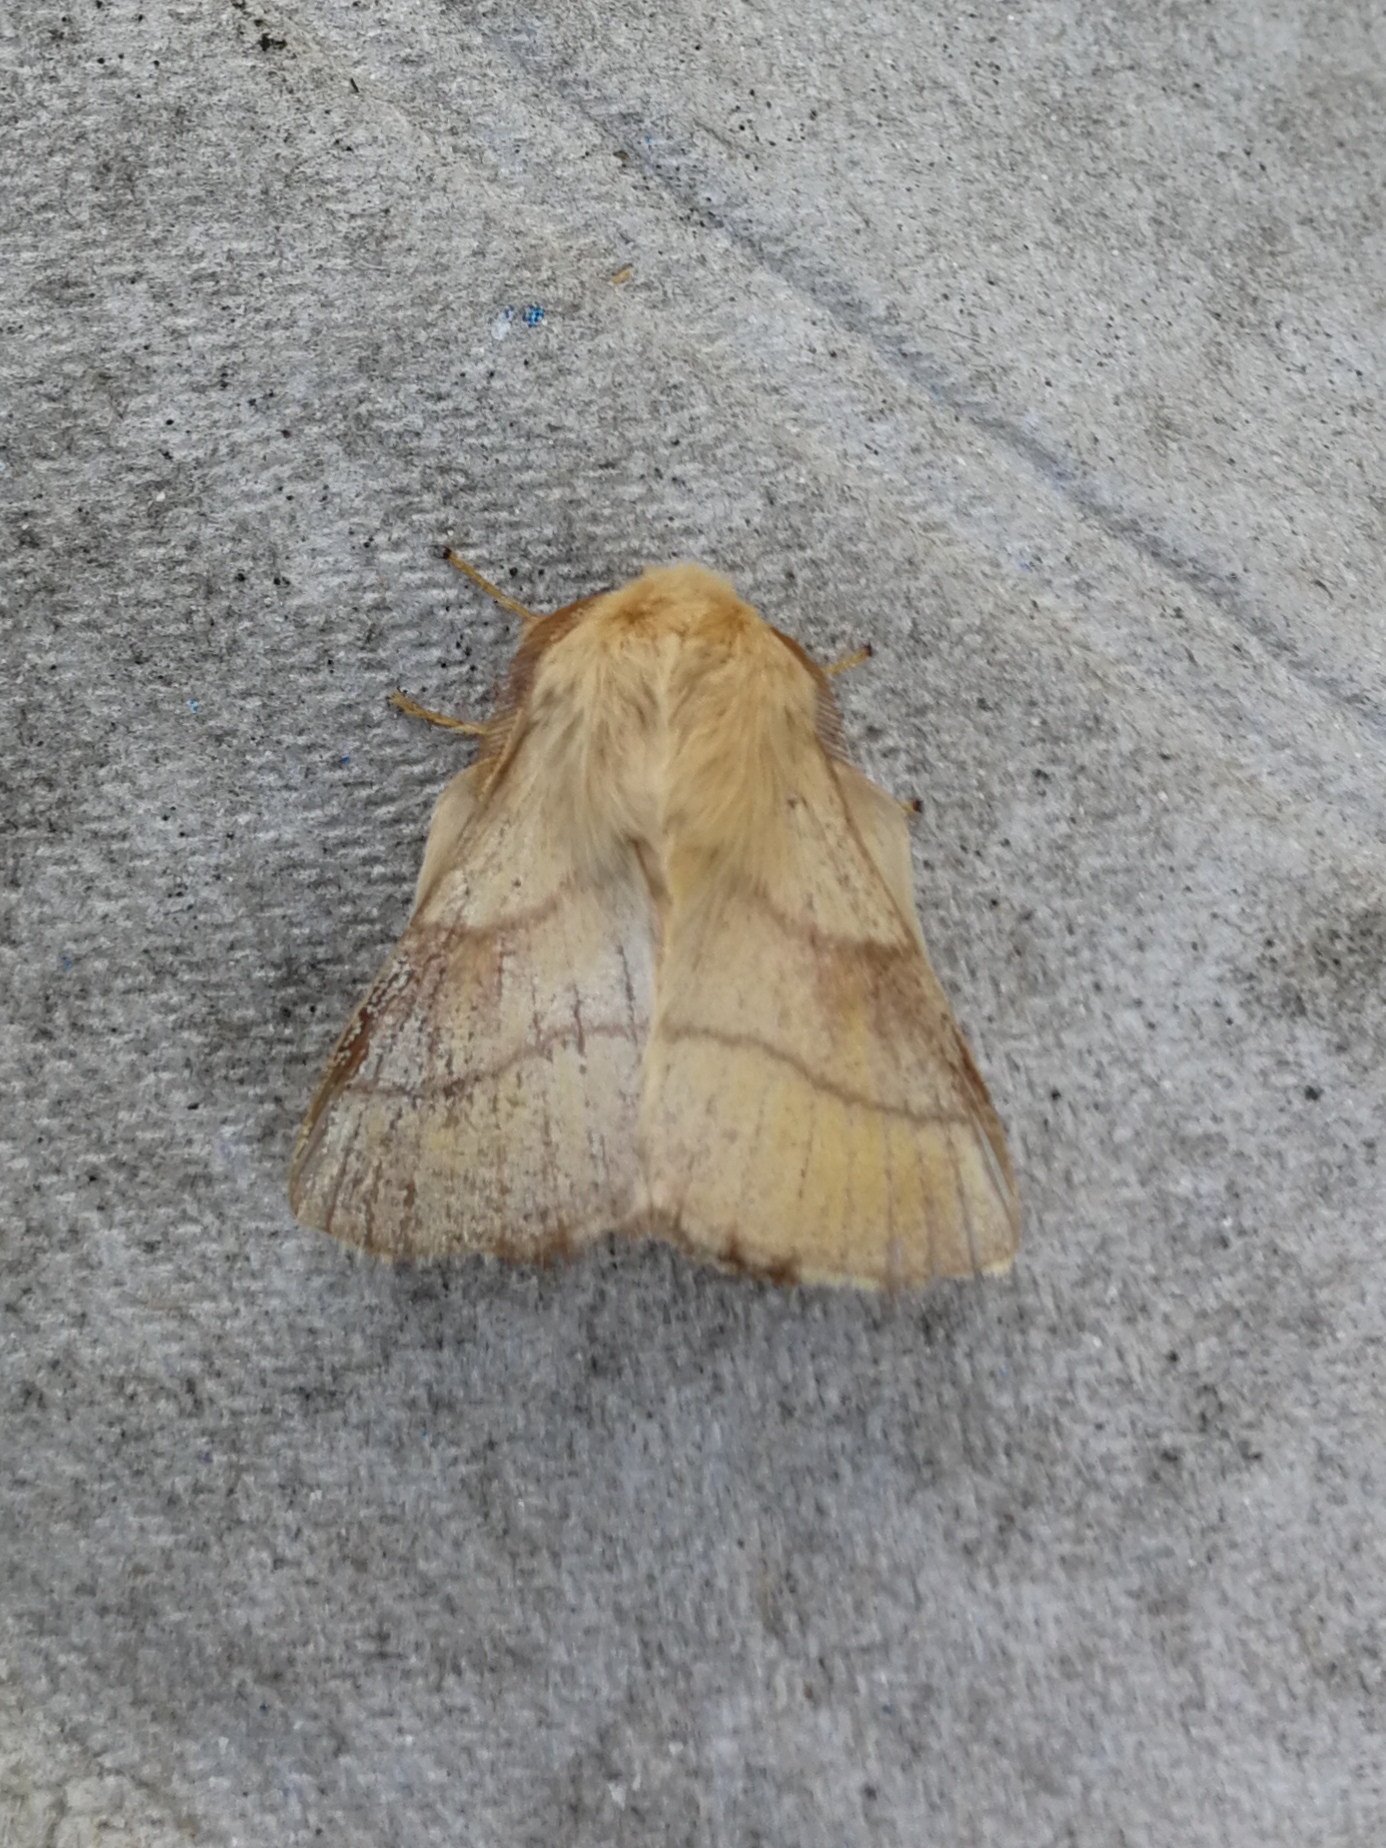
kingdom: Animalia
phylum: Arthropoda
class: Insecta
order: Lepidoptera
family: Lasiocampidae
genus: Malacosoma
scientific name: Malacosoma neustria
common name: The lackey
